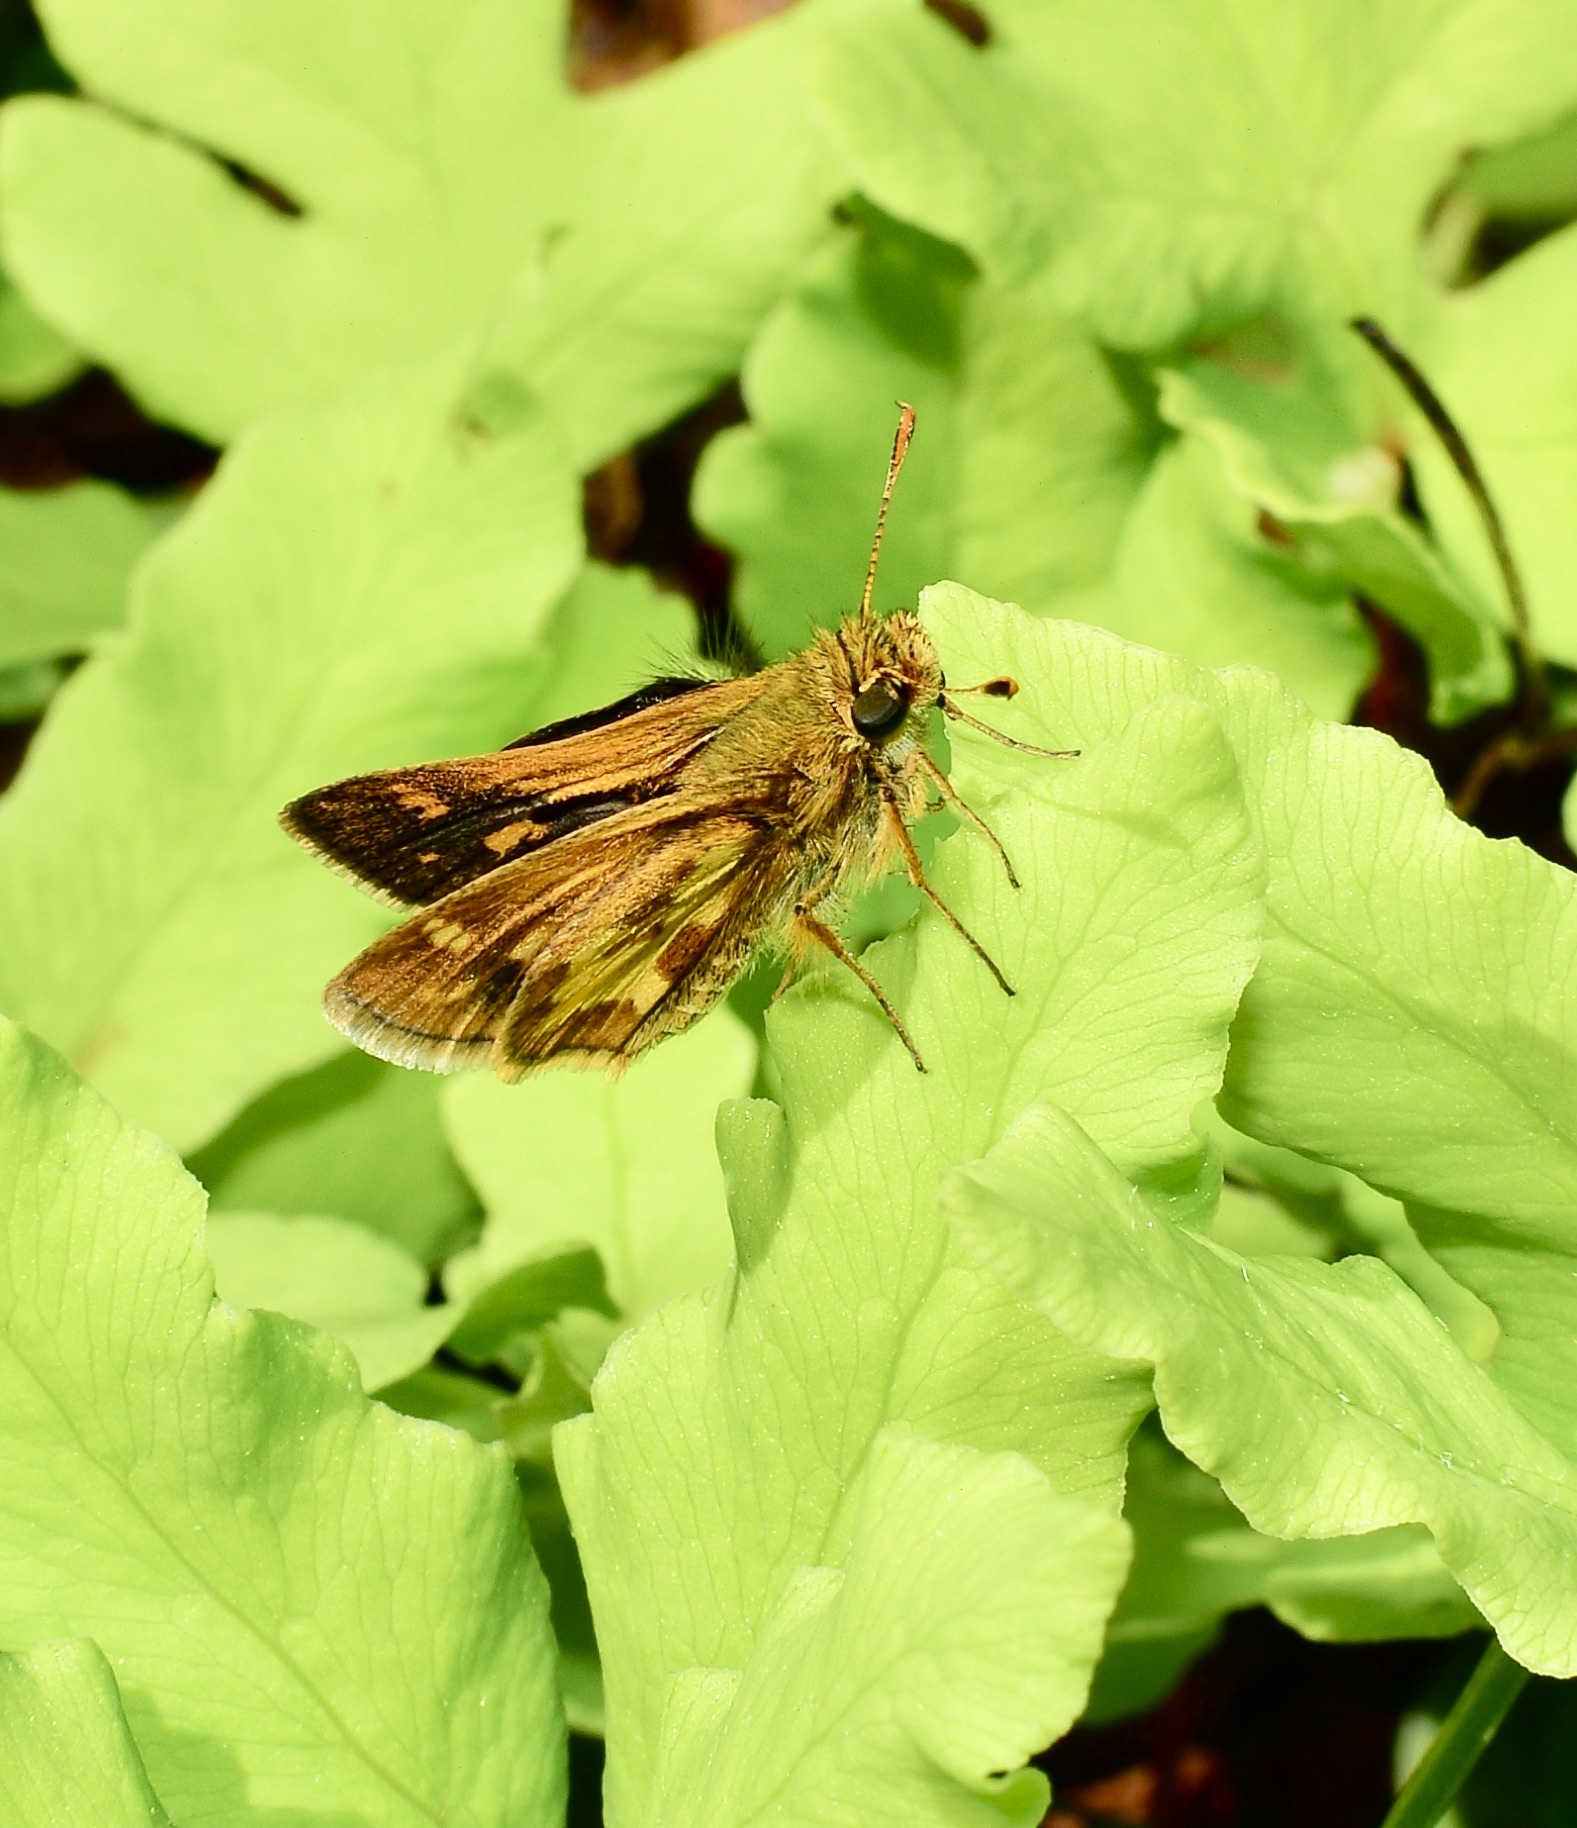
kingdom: Animalia
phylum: Arthropoda
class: Insecta
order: Lepidoptera
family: Hesperiidae
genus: Polites
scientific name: Polites coras
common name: Peck's skipper
